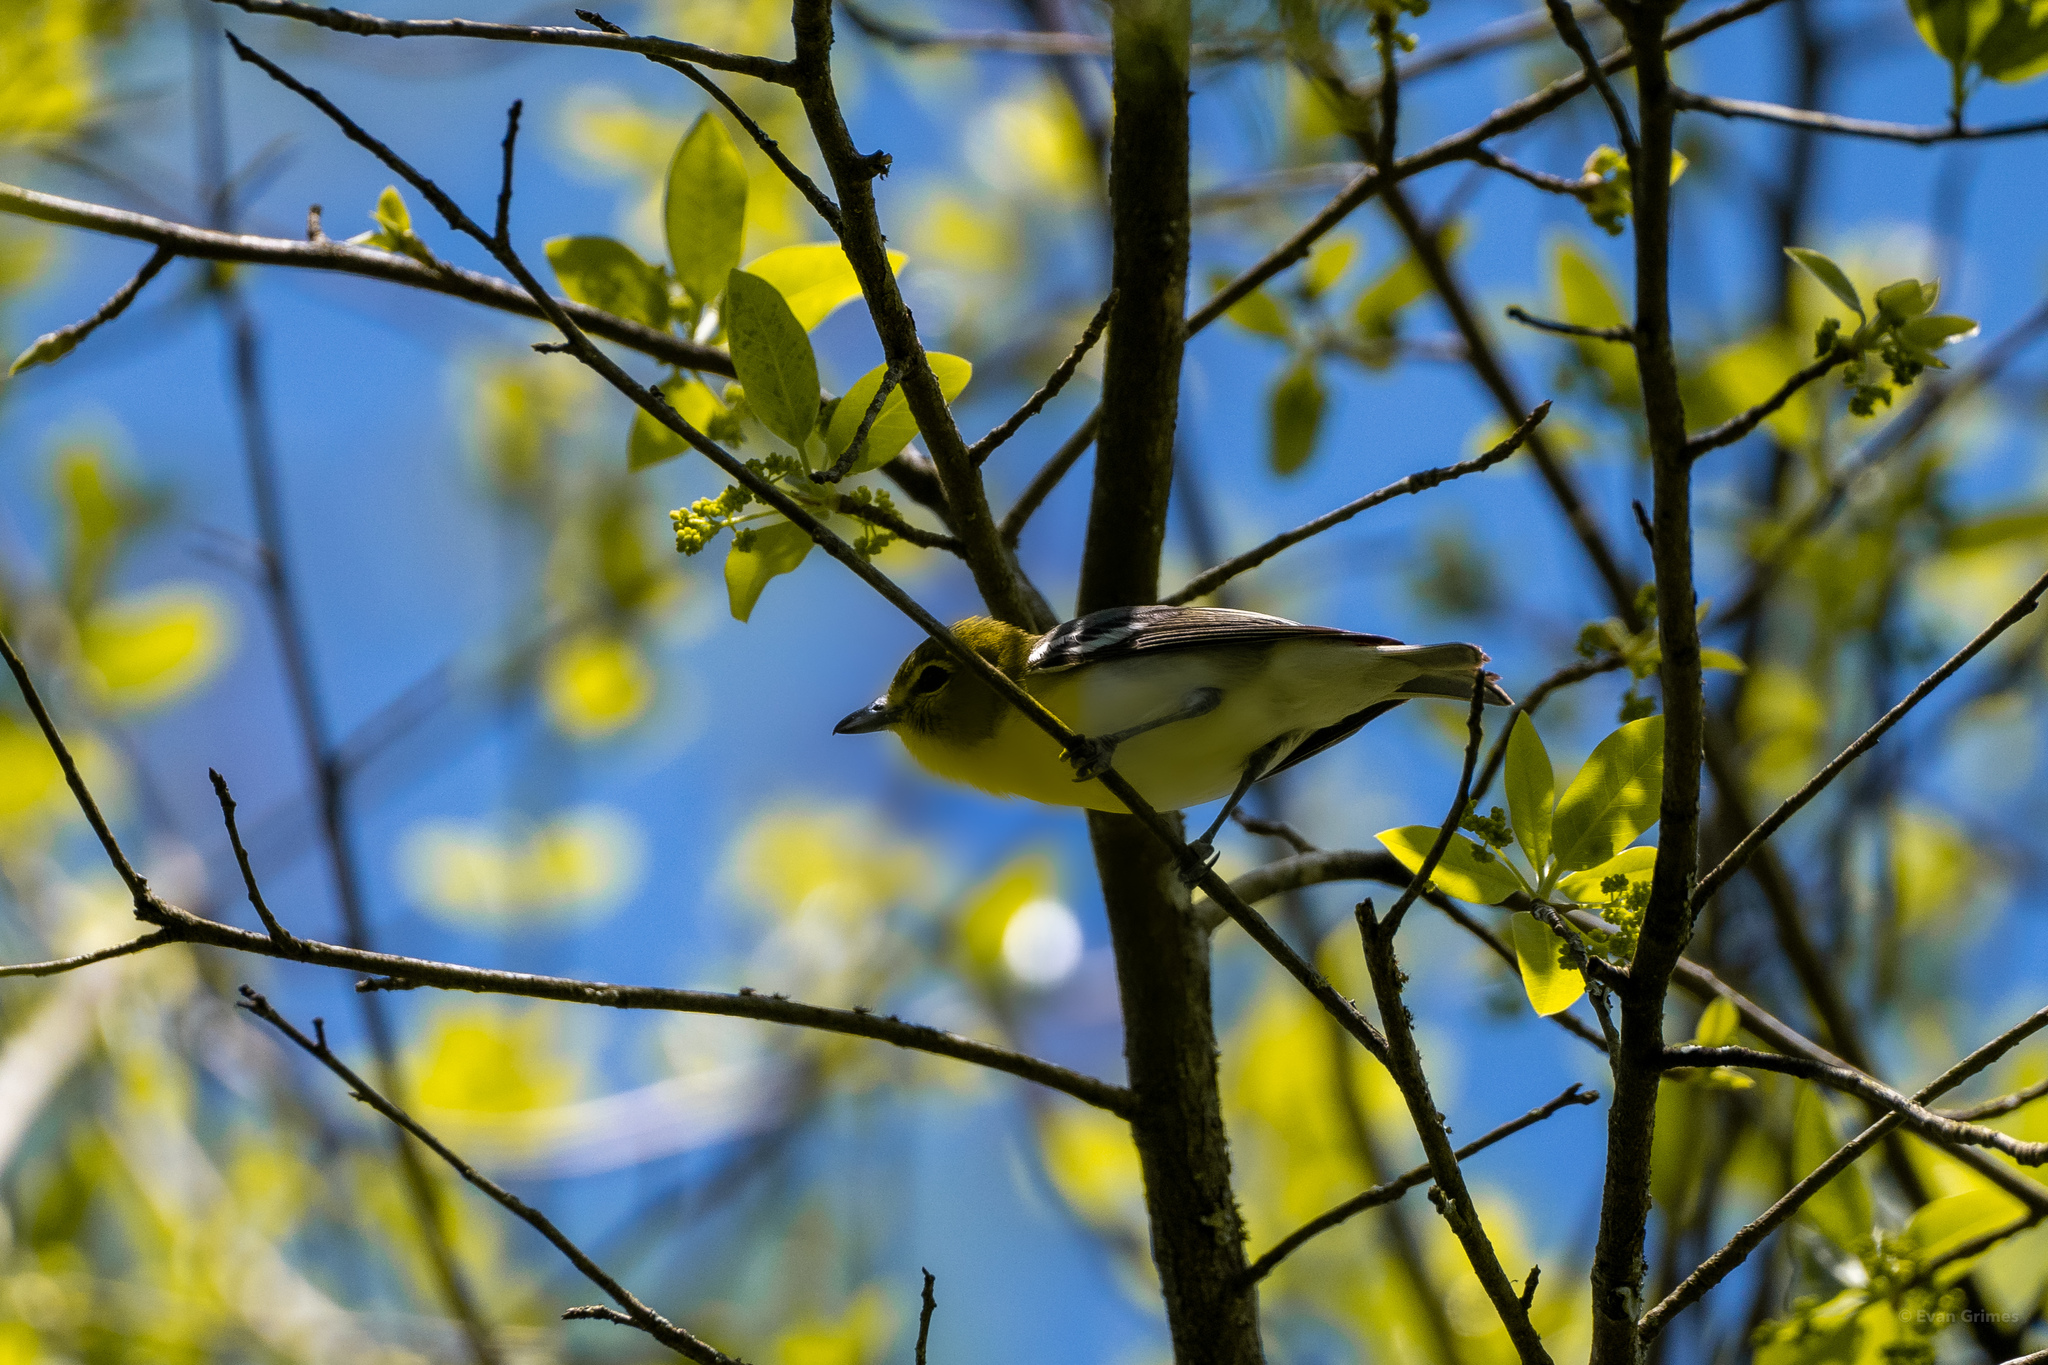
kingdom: Animalia
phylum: Chordata
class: Aves
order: Passeriformes
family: Vireonidae
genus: Vireo
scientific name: Vireo flavifrons
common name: Yellow-throated vireo
